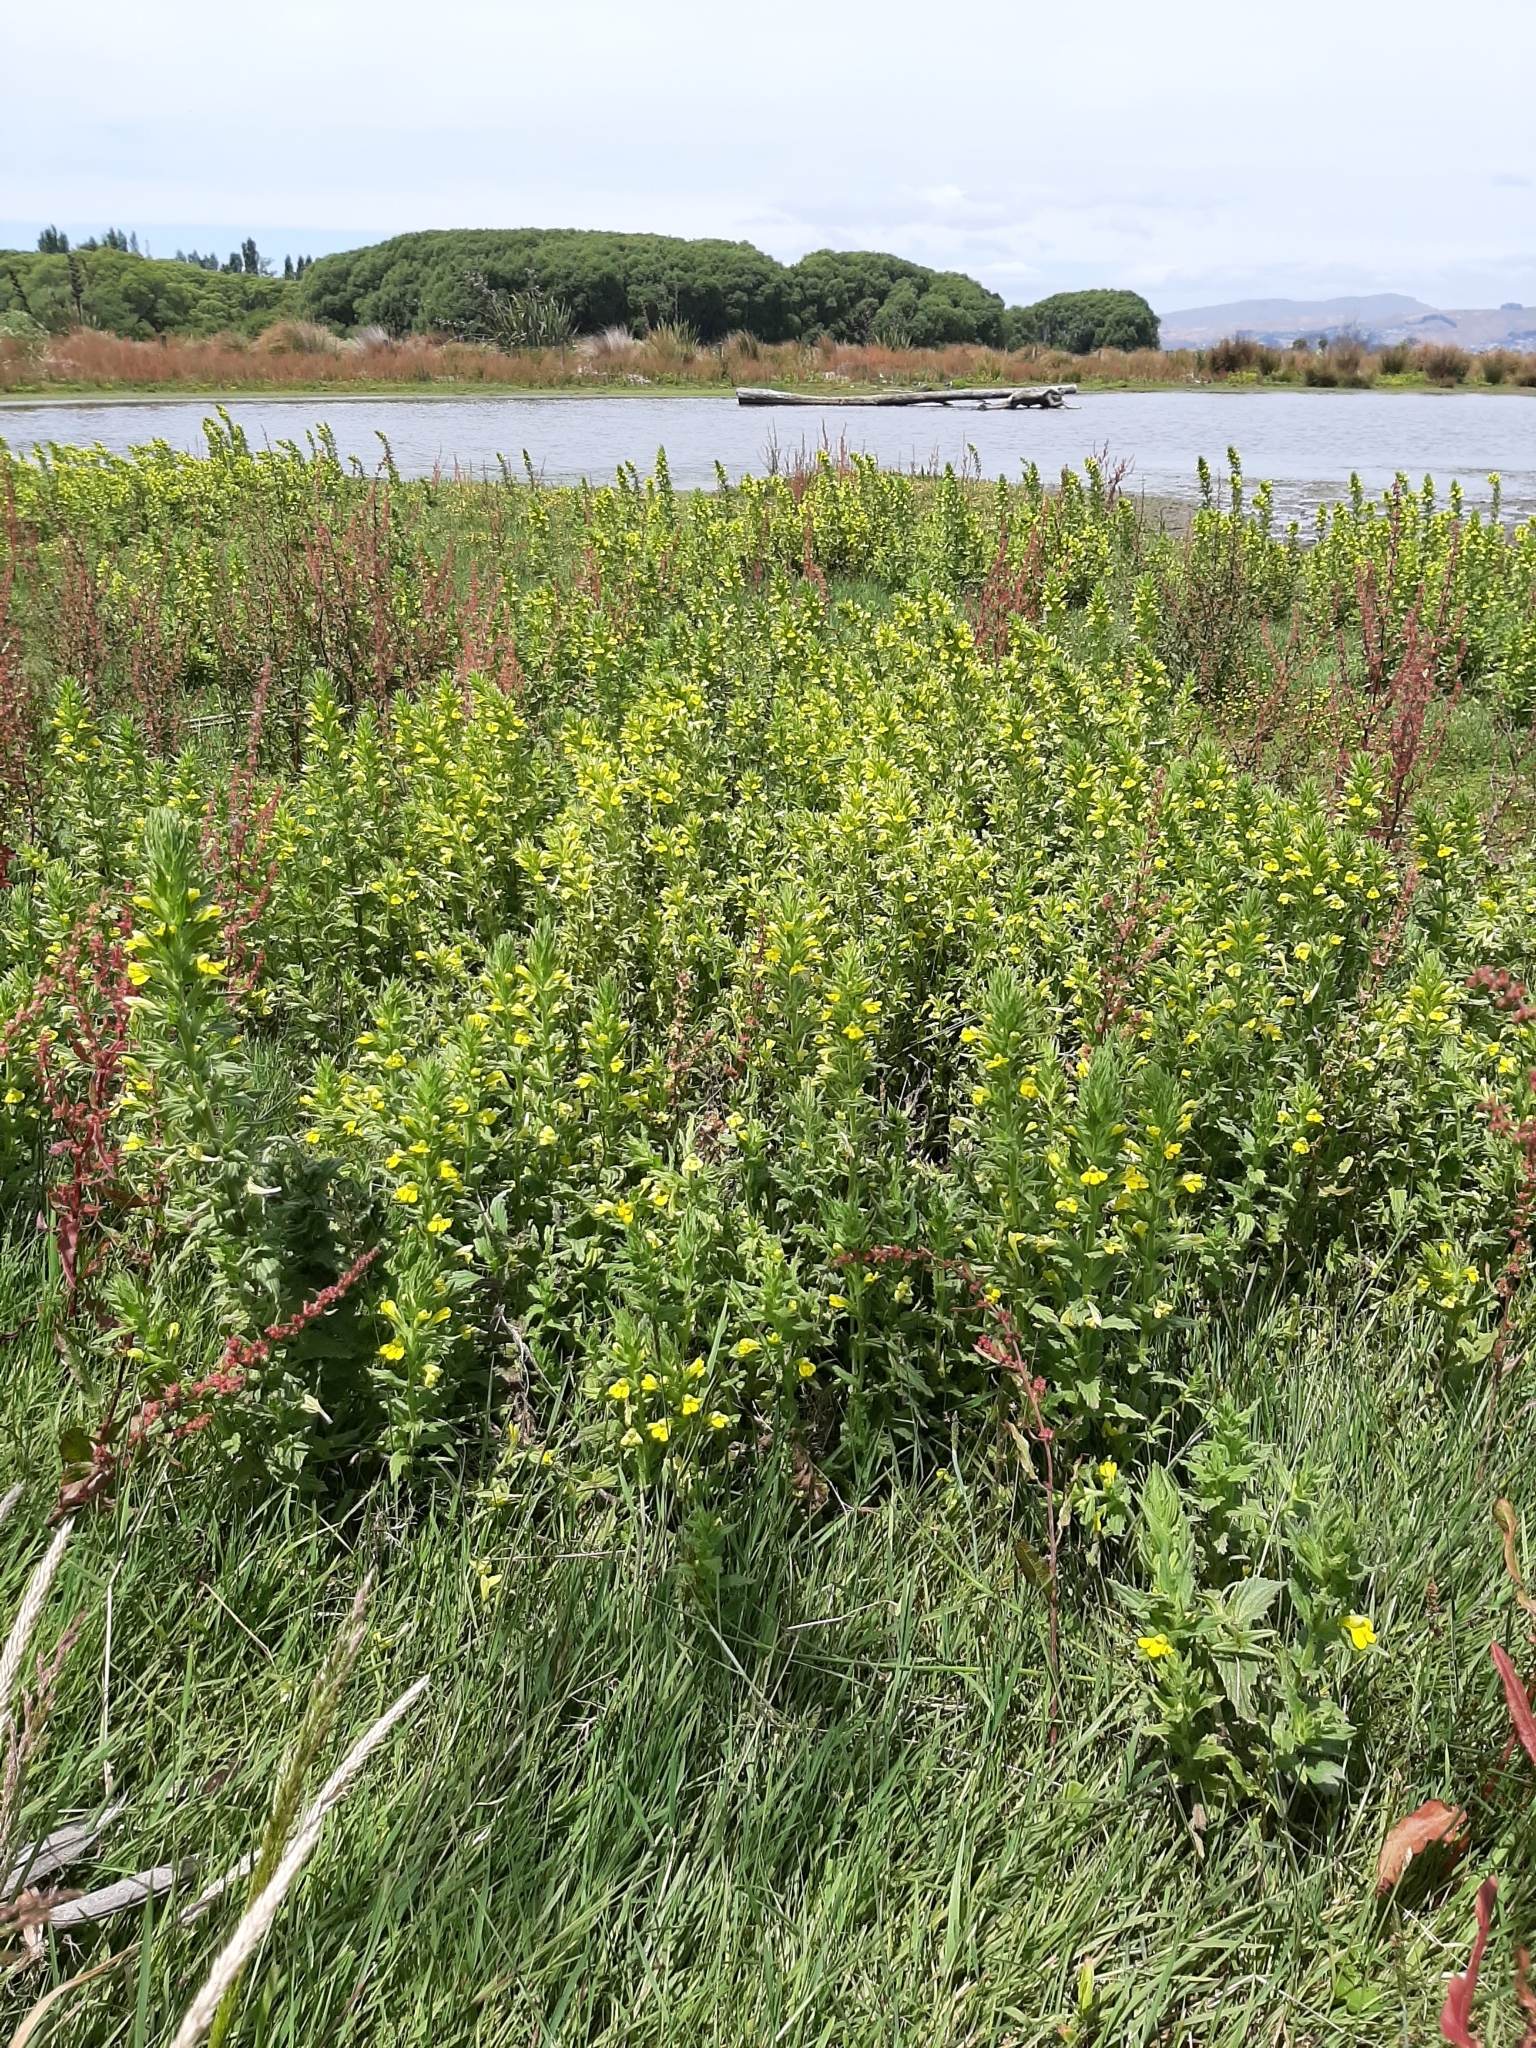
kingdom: Plantae
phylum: Tracheophyta
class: Magnoliopsida
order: Lamiales
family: Orobanchaceae
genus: Bellardia
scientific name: Bellardia viscosa
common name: Sticky parentucellia
